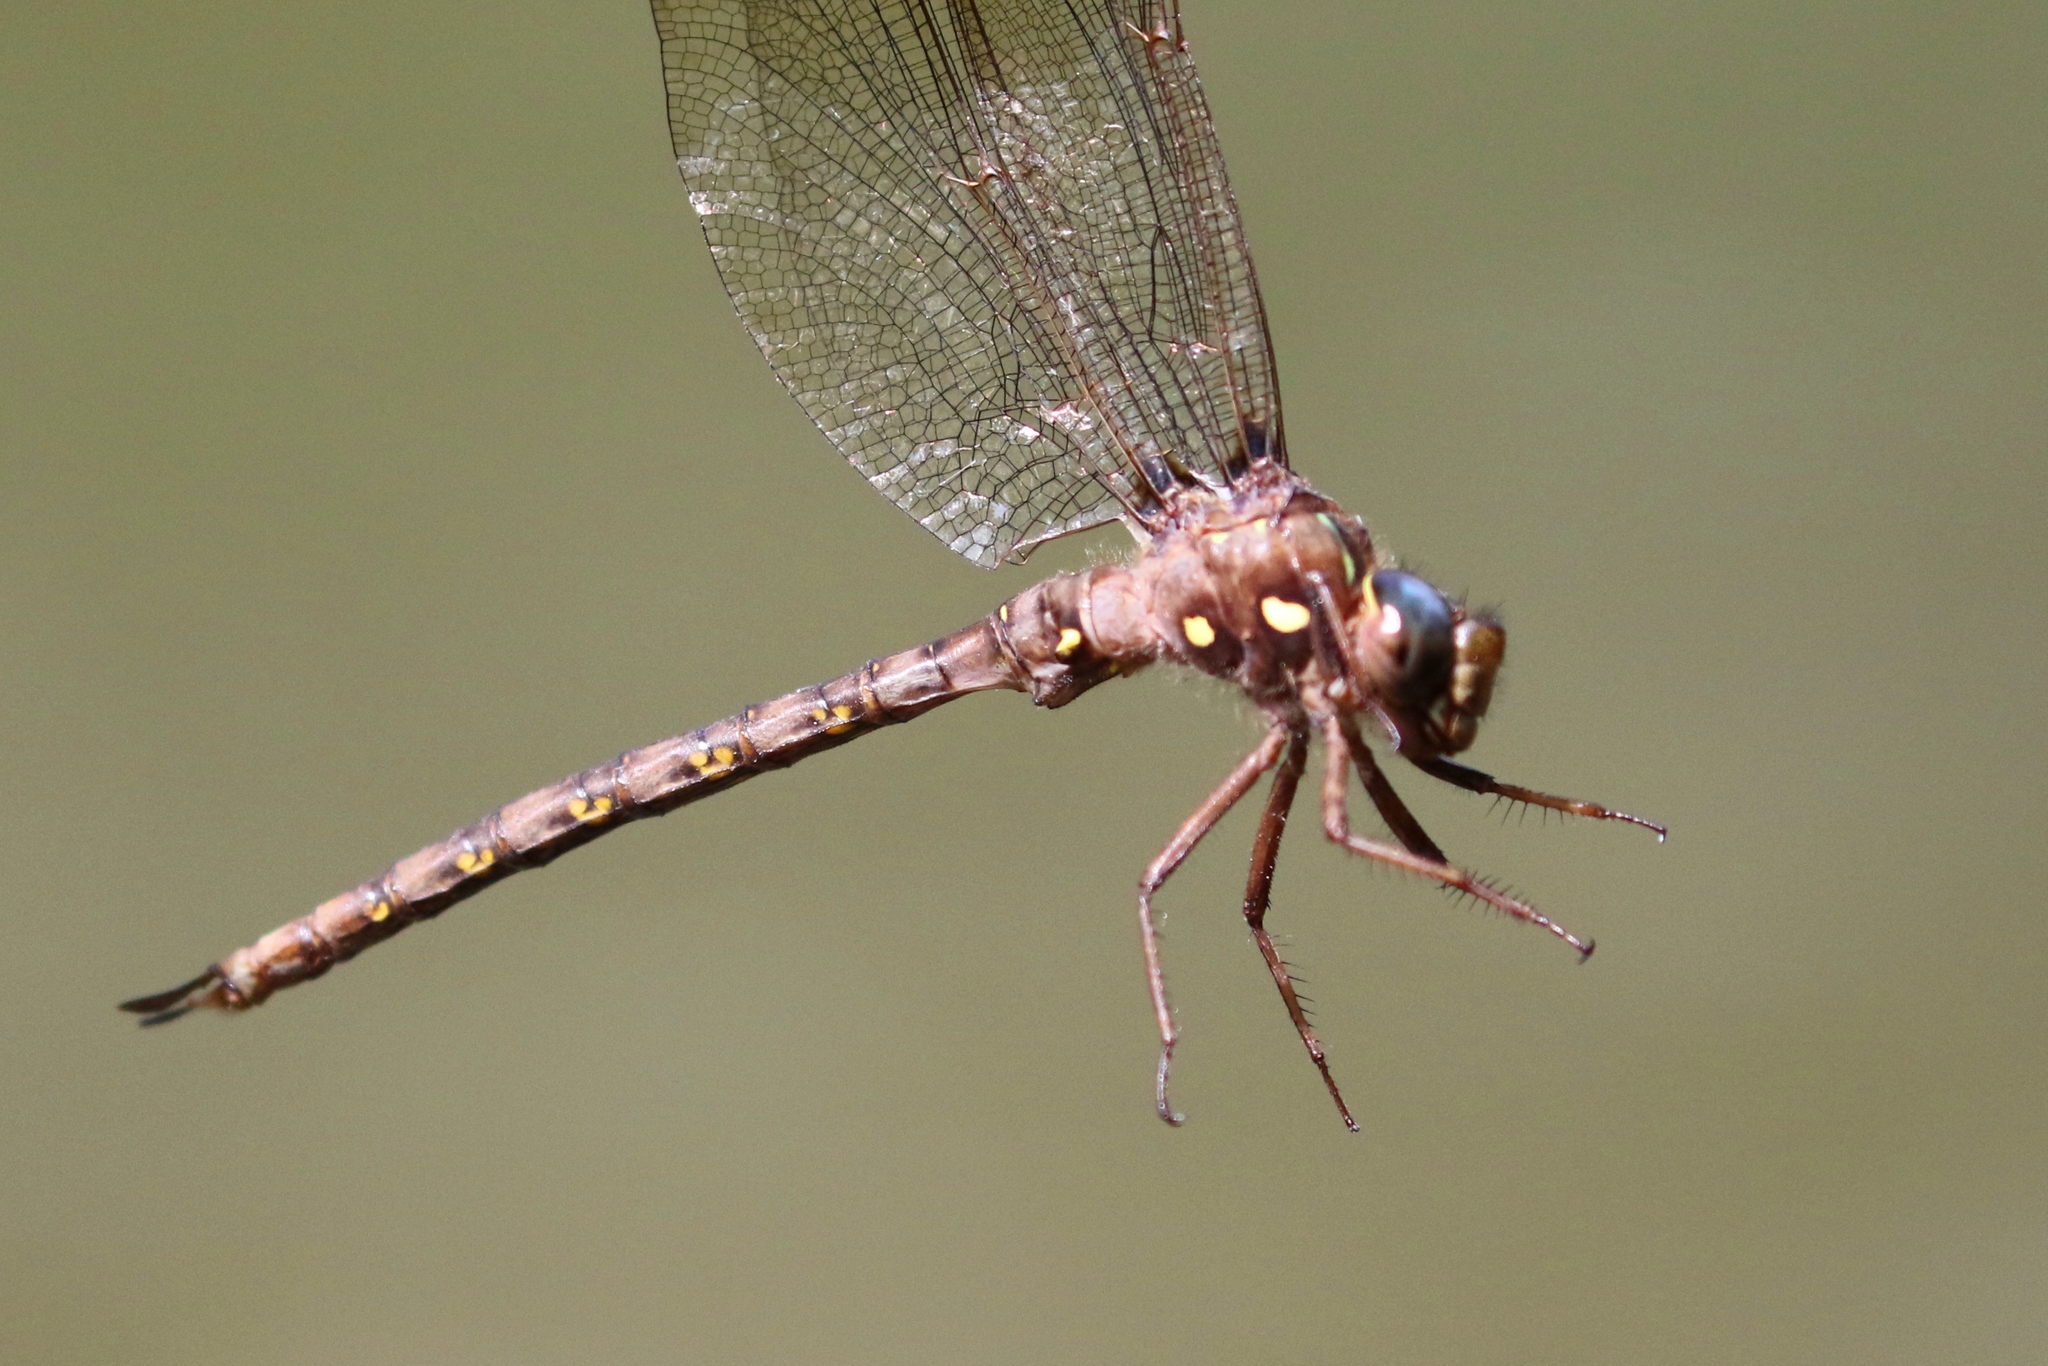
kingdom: Animalia
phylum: Arthropoda
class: Insecta
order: Odonata
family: Aeshnidae
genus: Boyeria
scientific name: Boyeria vinosa
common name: Fawn darner
